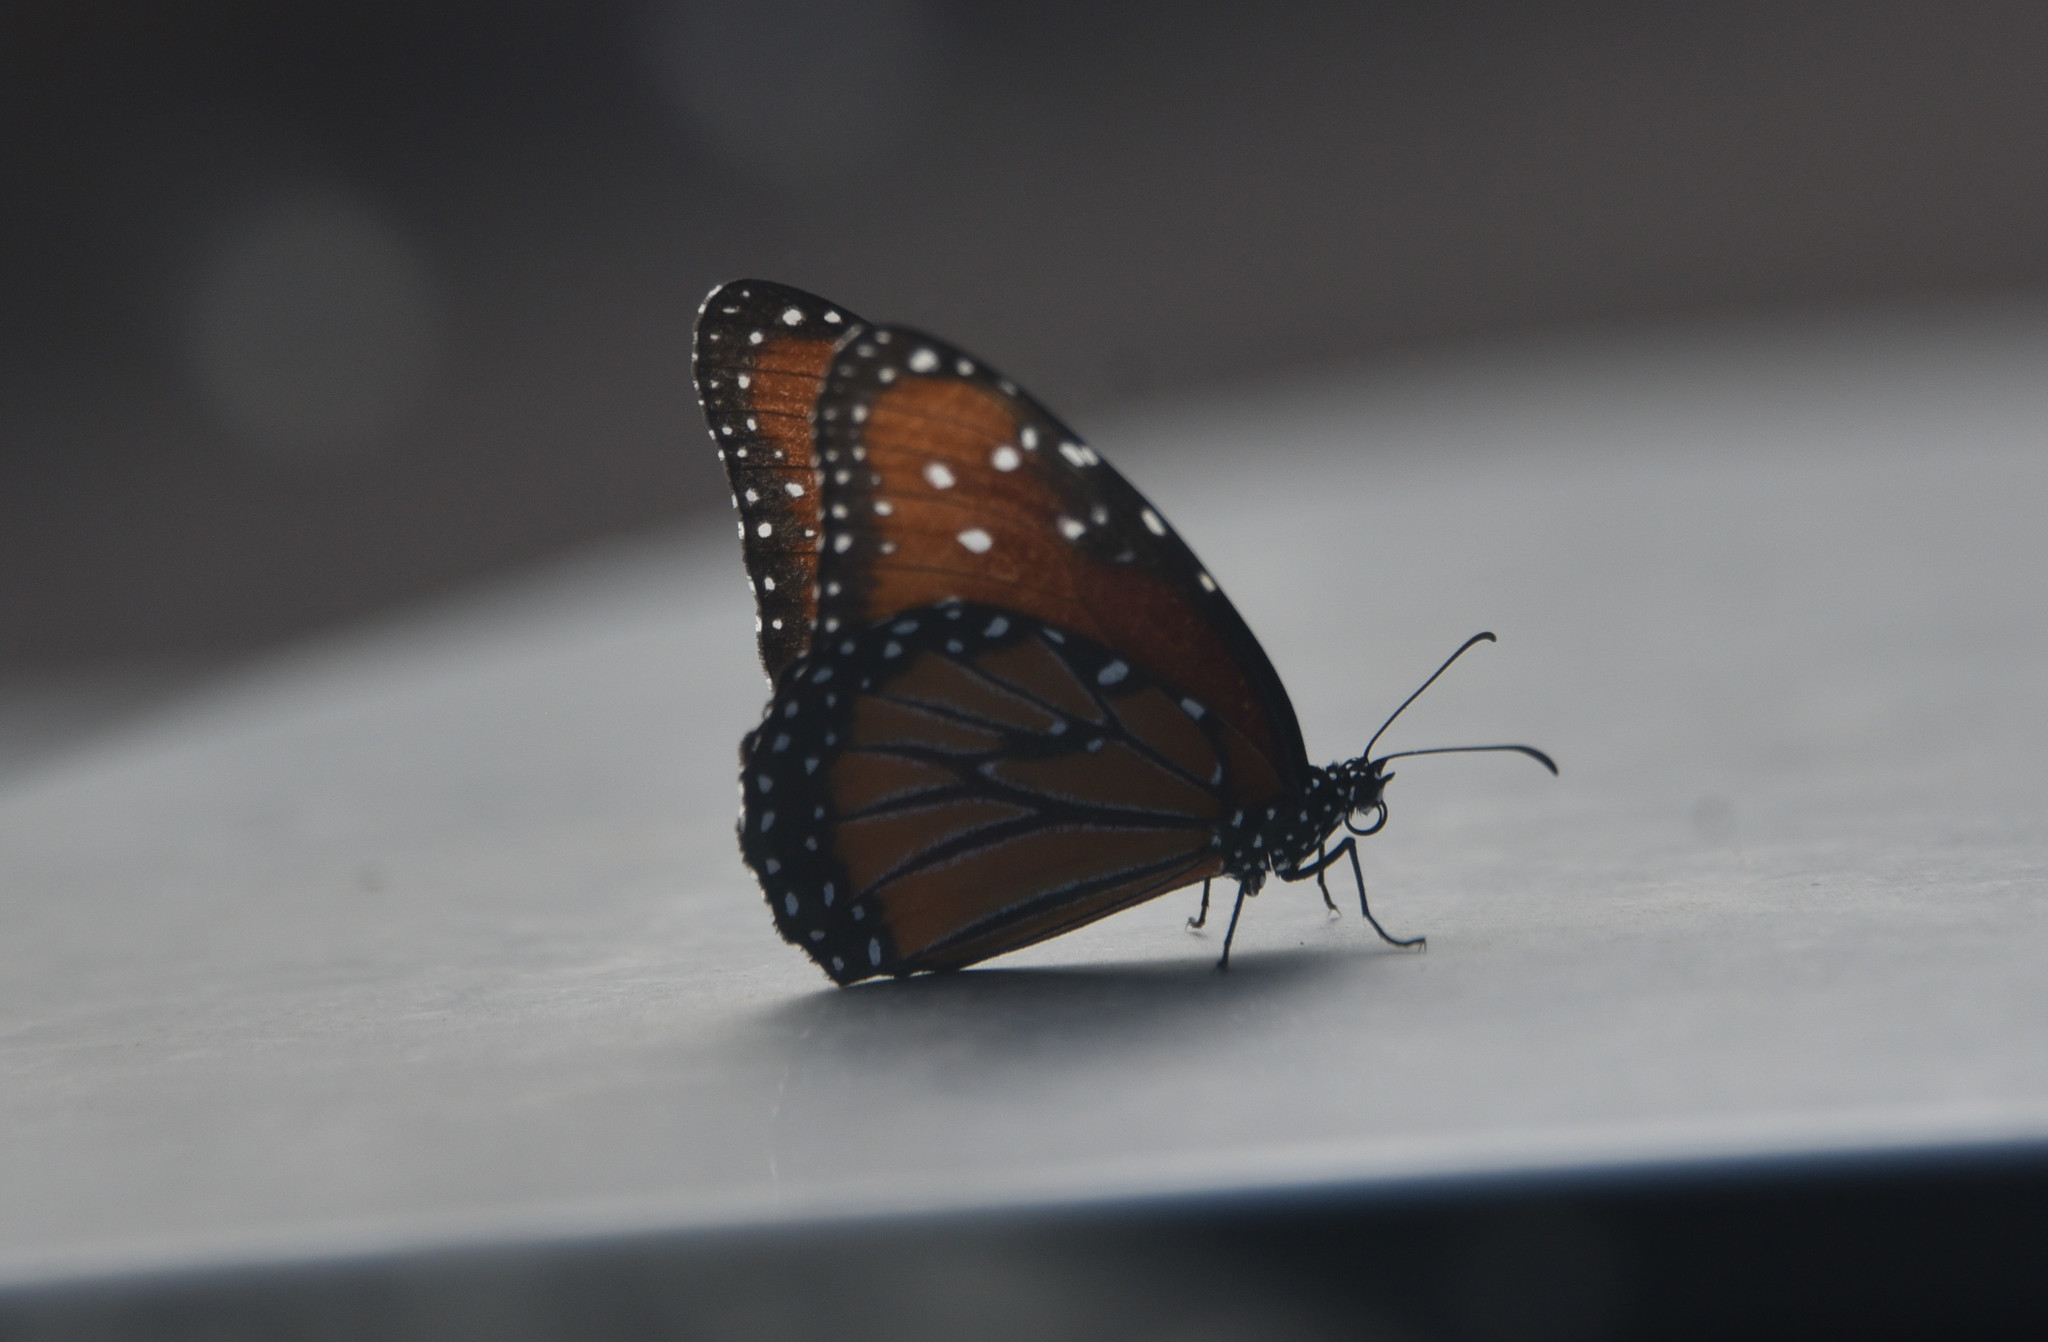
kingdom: Animalia
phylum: Arthropoda
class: Insecta
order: Lepidoptera
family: Nymphalidae
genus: Danaus
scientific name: Danaus gilippus
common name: Queen
